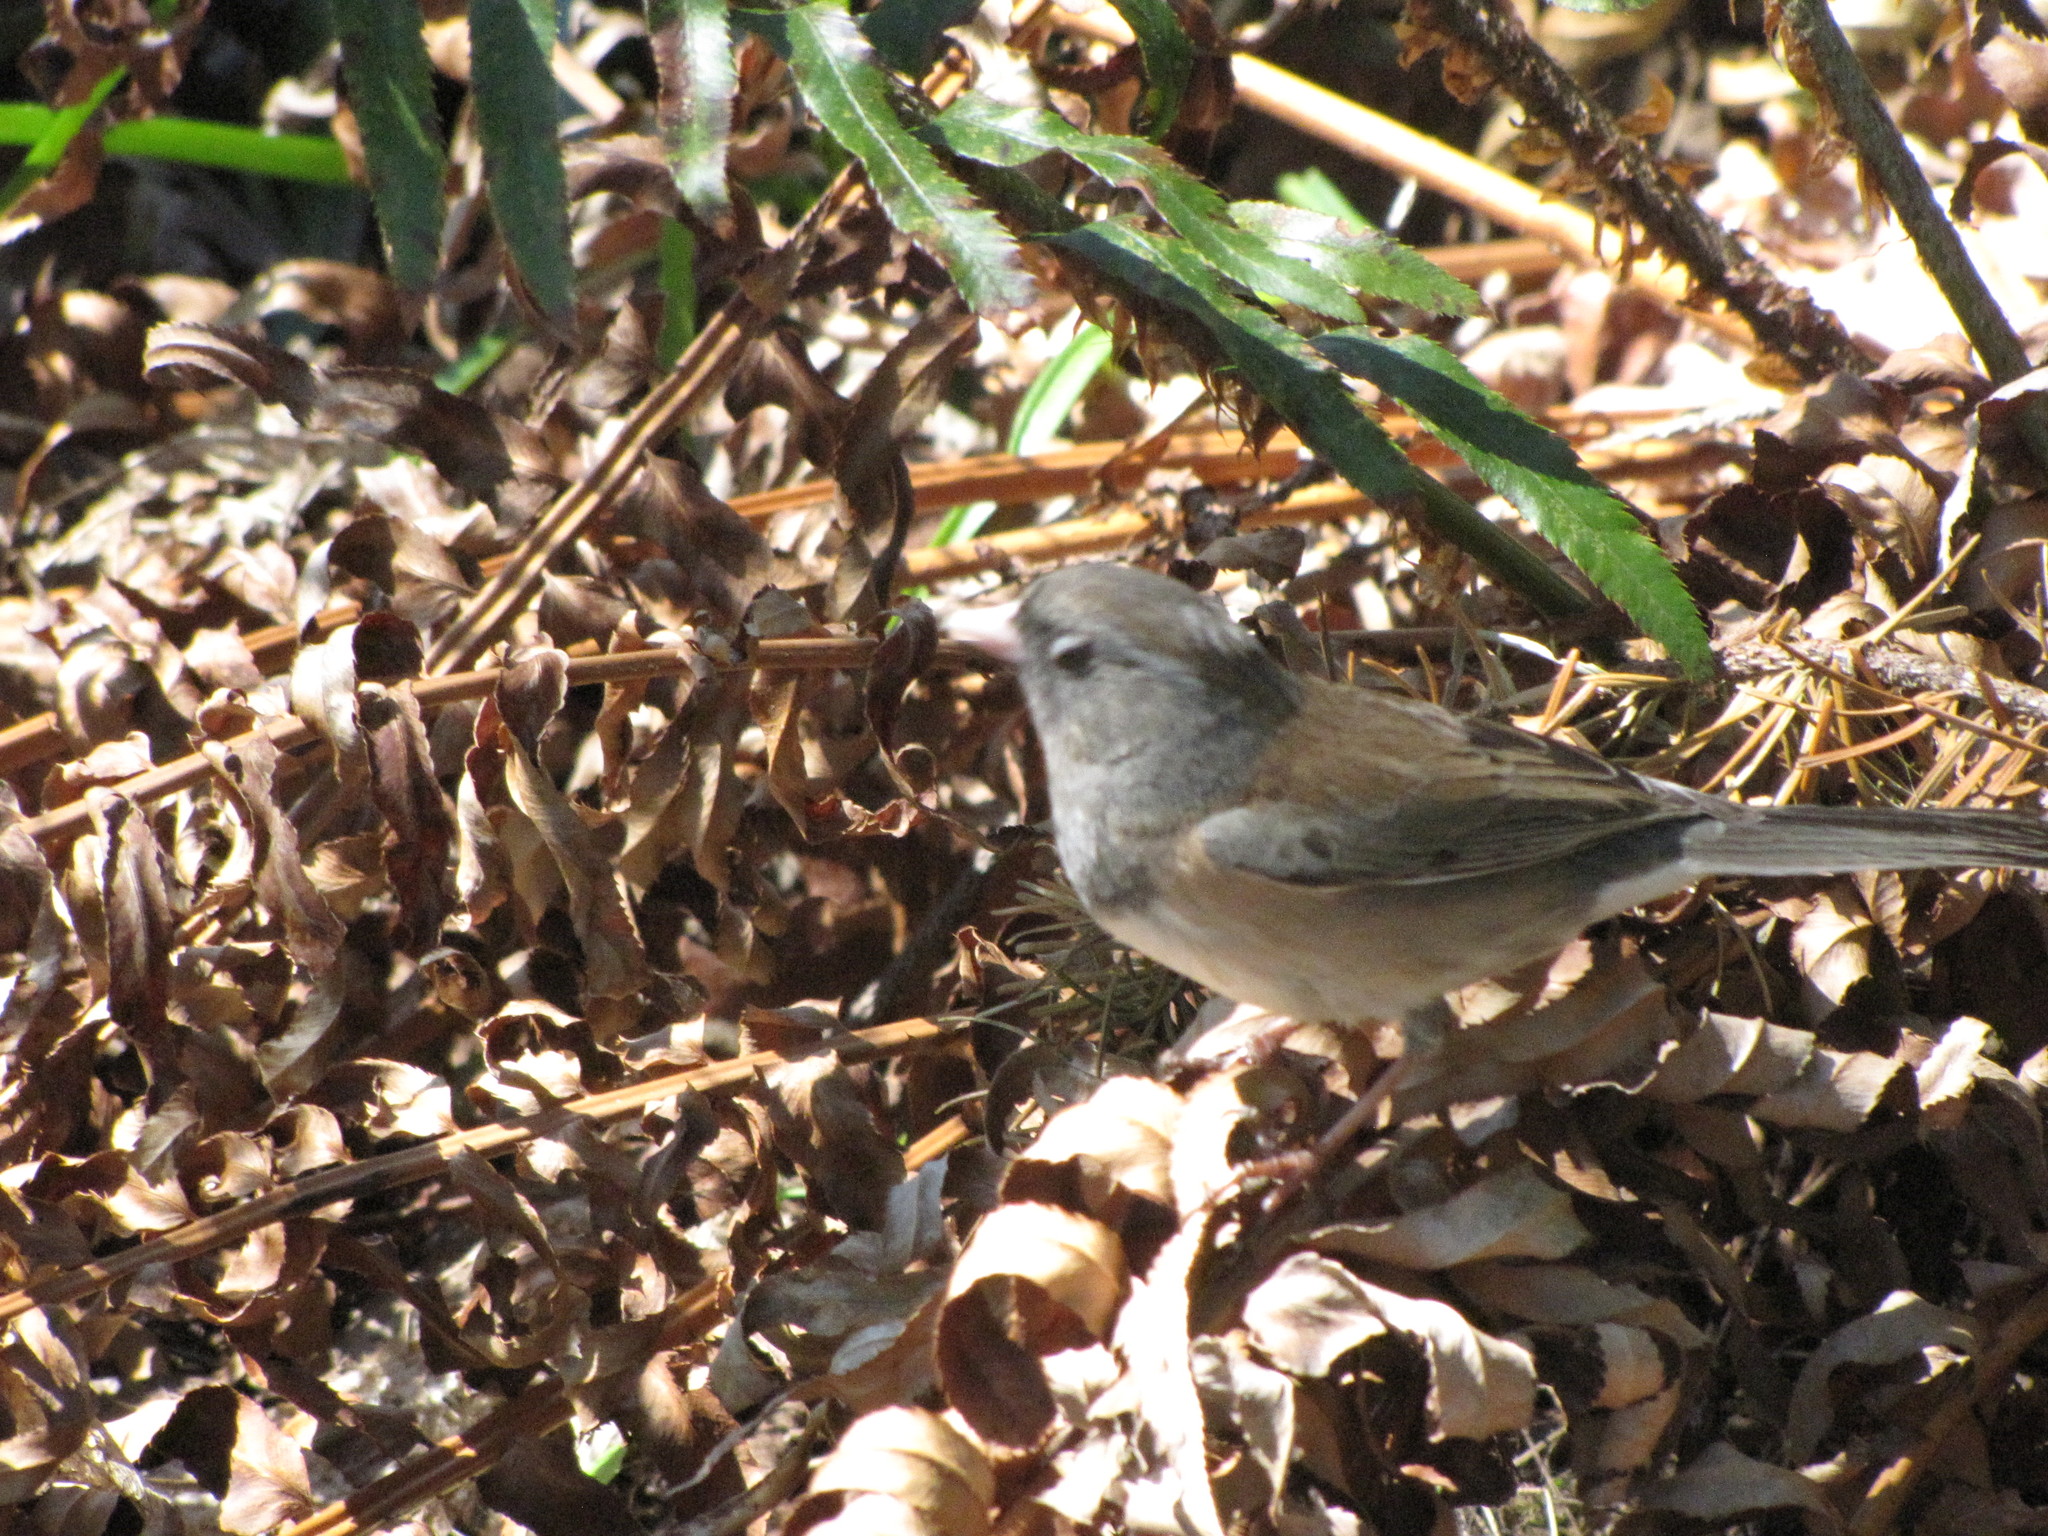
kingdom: Animalia
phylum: Chordata
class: Aves
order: Passeriformes
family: Passerellidae
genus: Junco
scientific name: Junco hyemalis
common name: Dark-eyed junco
